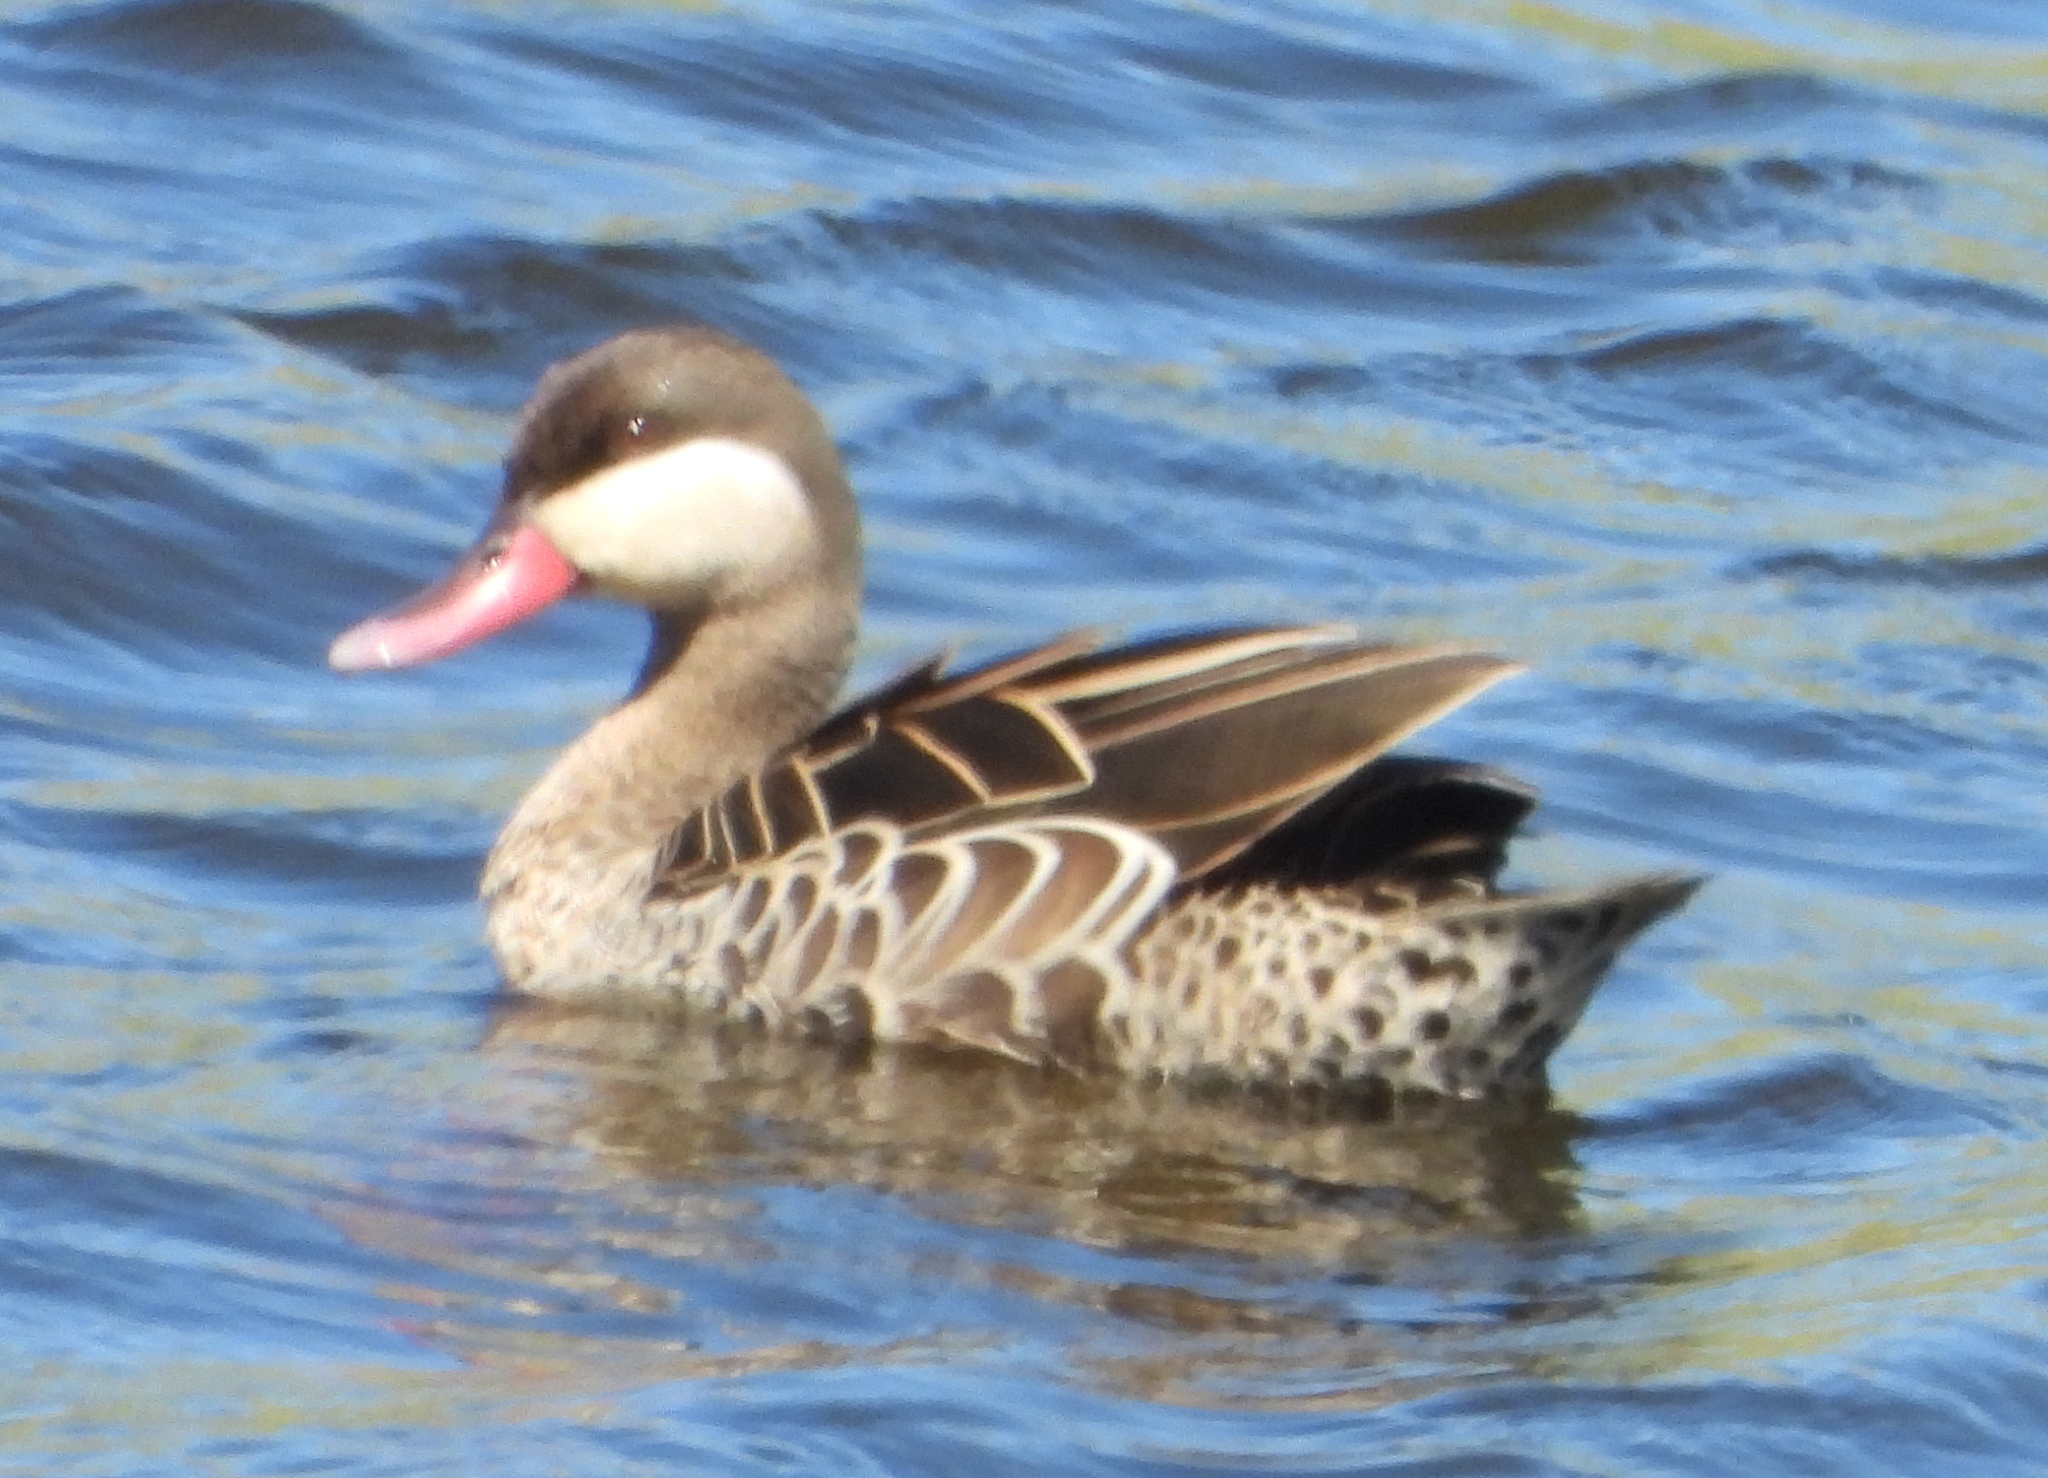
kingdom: Animalia
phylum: Chordata
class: Aves
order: Anseriformes
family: Anatidae
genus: Anas
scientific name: Anas erythrorhyncha
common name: Red-billed teal
